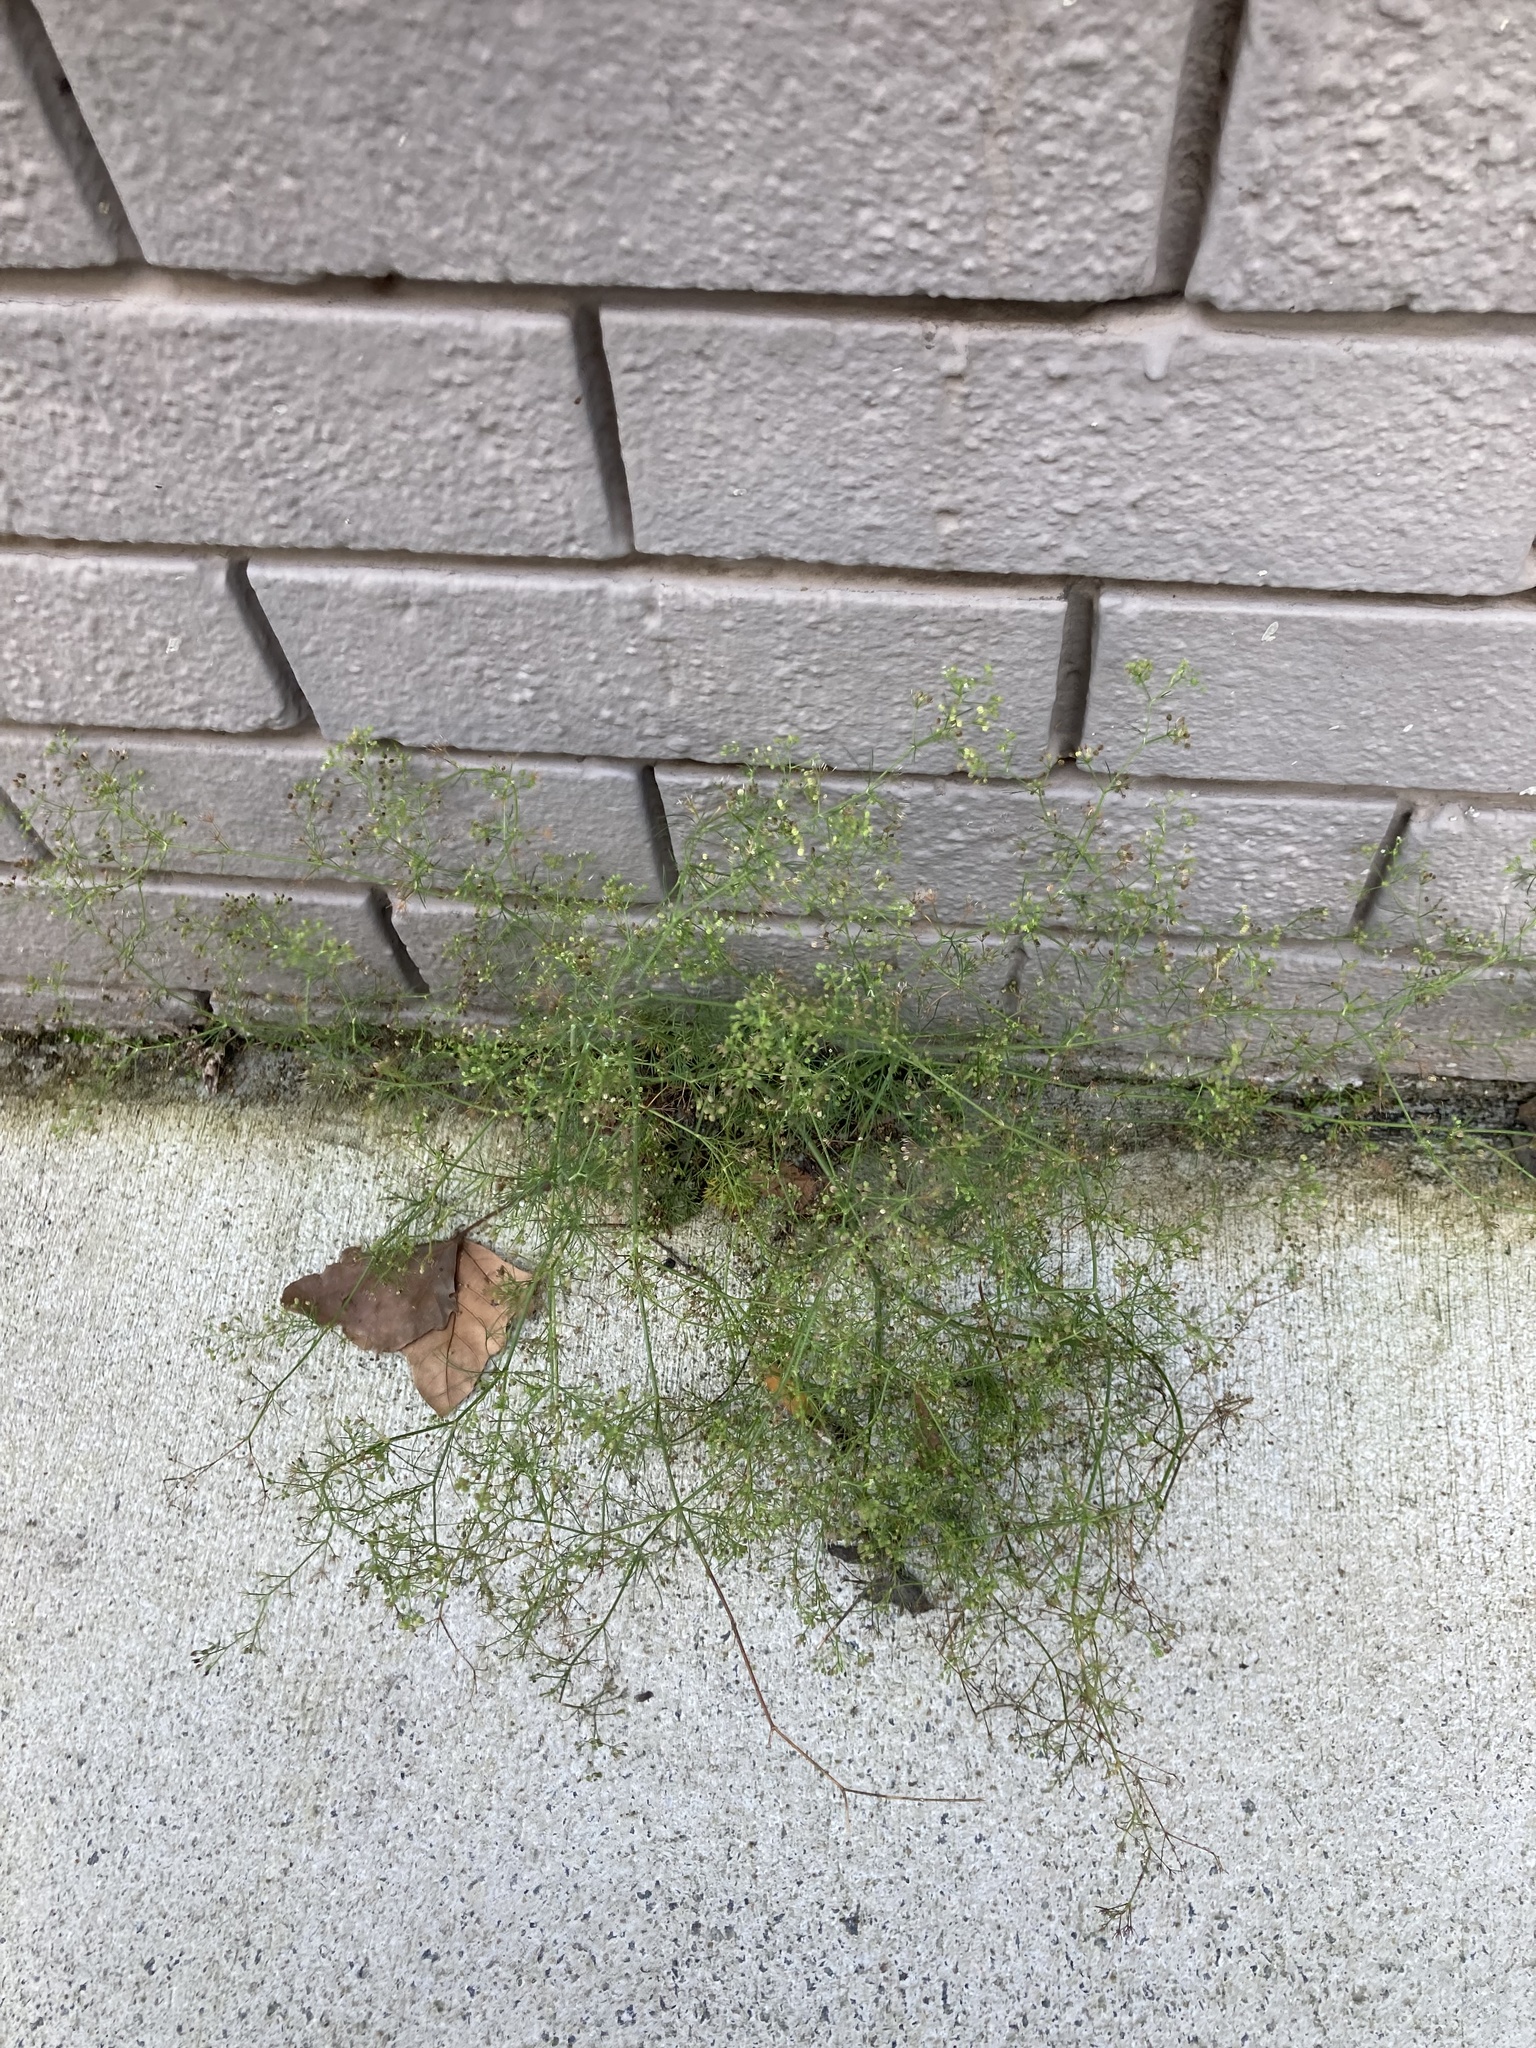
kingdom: Plantae
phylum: Tracheophyta
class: Magnoliopsida
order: Apiales
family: Apiaceae
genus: Cyclospermum
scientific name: Cyclospermum leptophyllum
